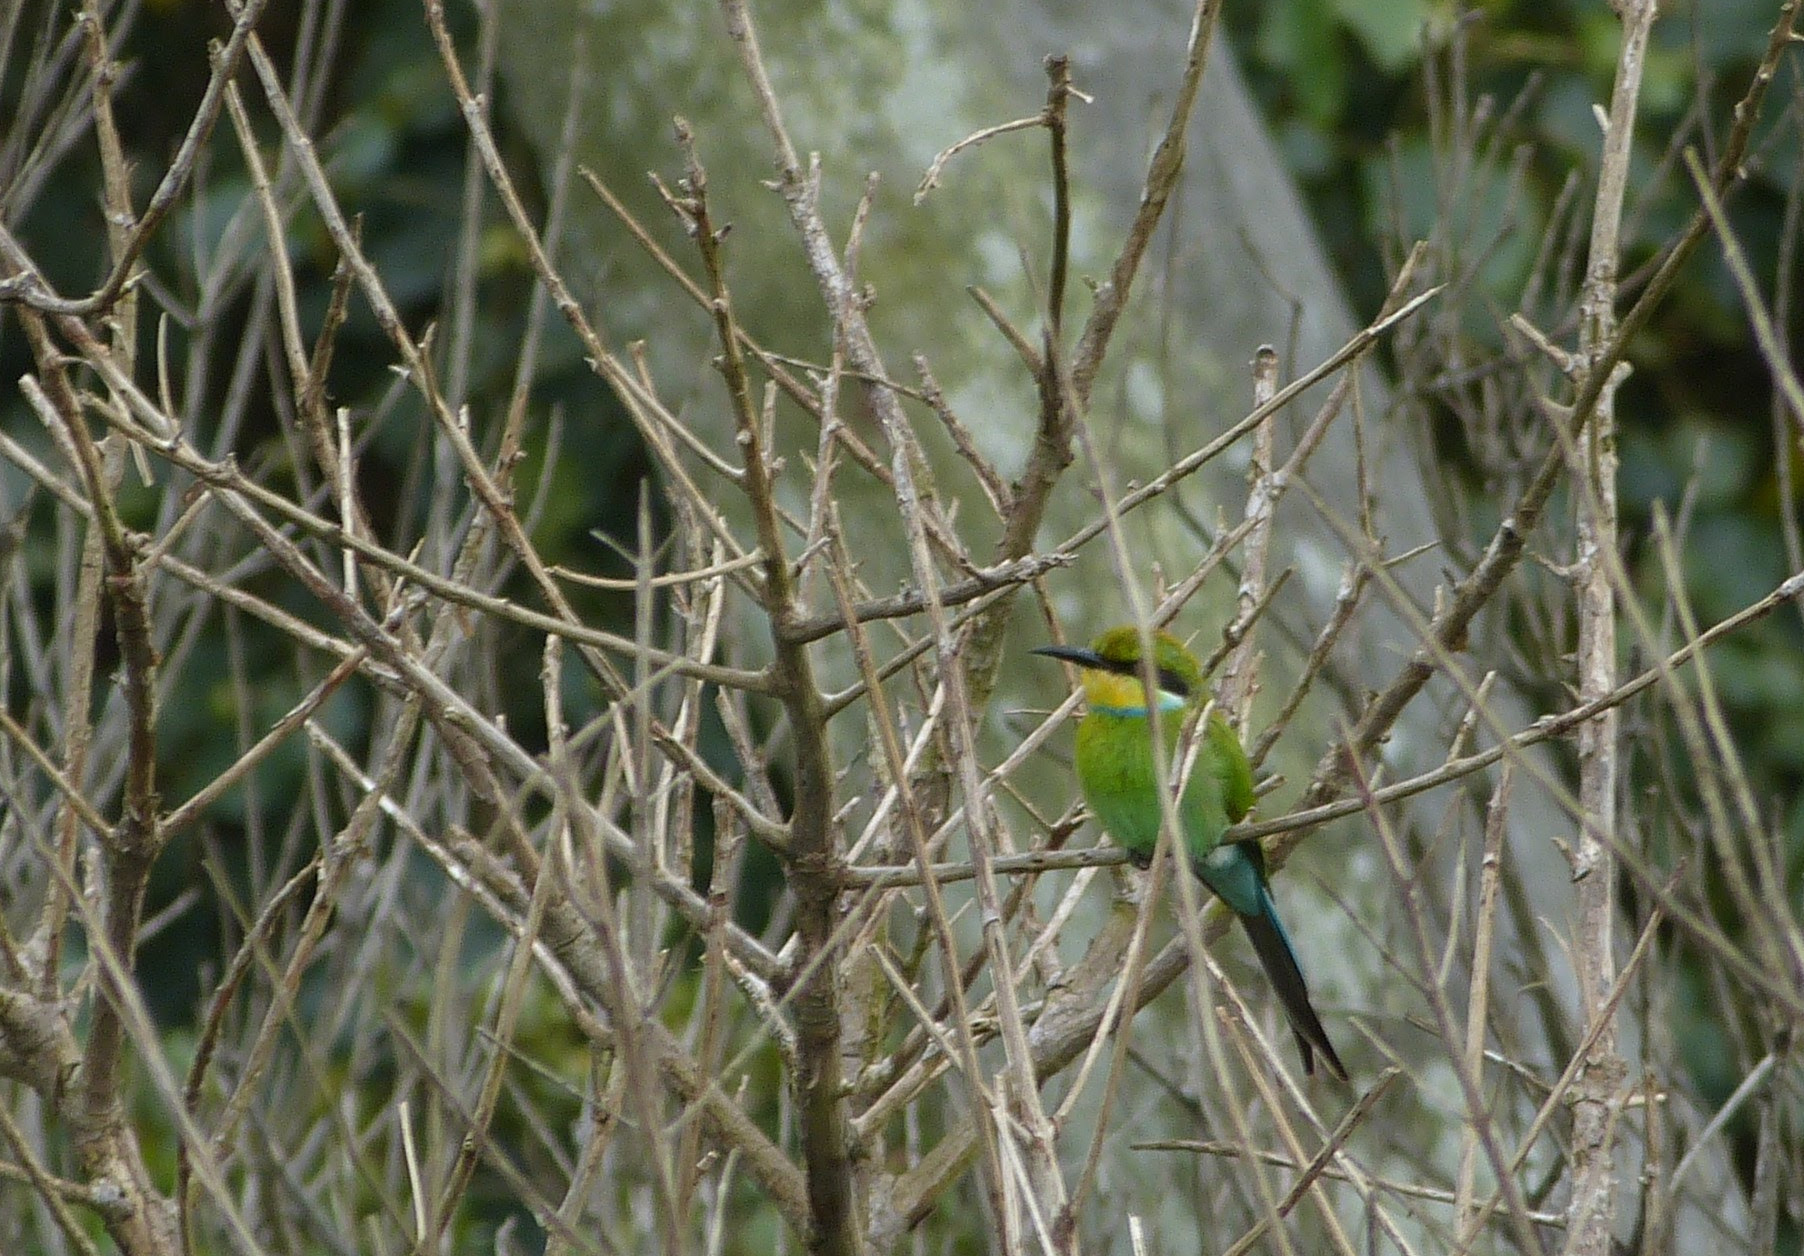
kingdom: Animalia
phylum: Chordata
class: Aves
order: Coraciiformes
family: Meropidae
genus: Merops
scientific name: Merops hirundineus
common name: Swallow-tailed bee-eater
